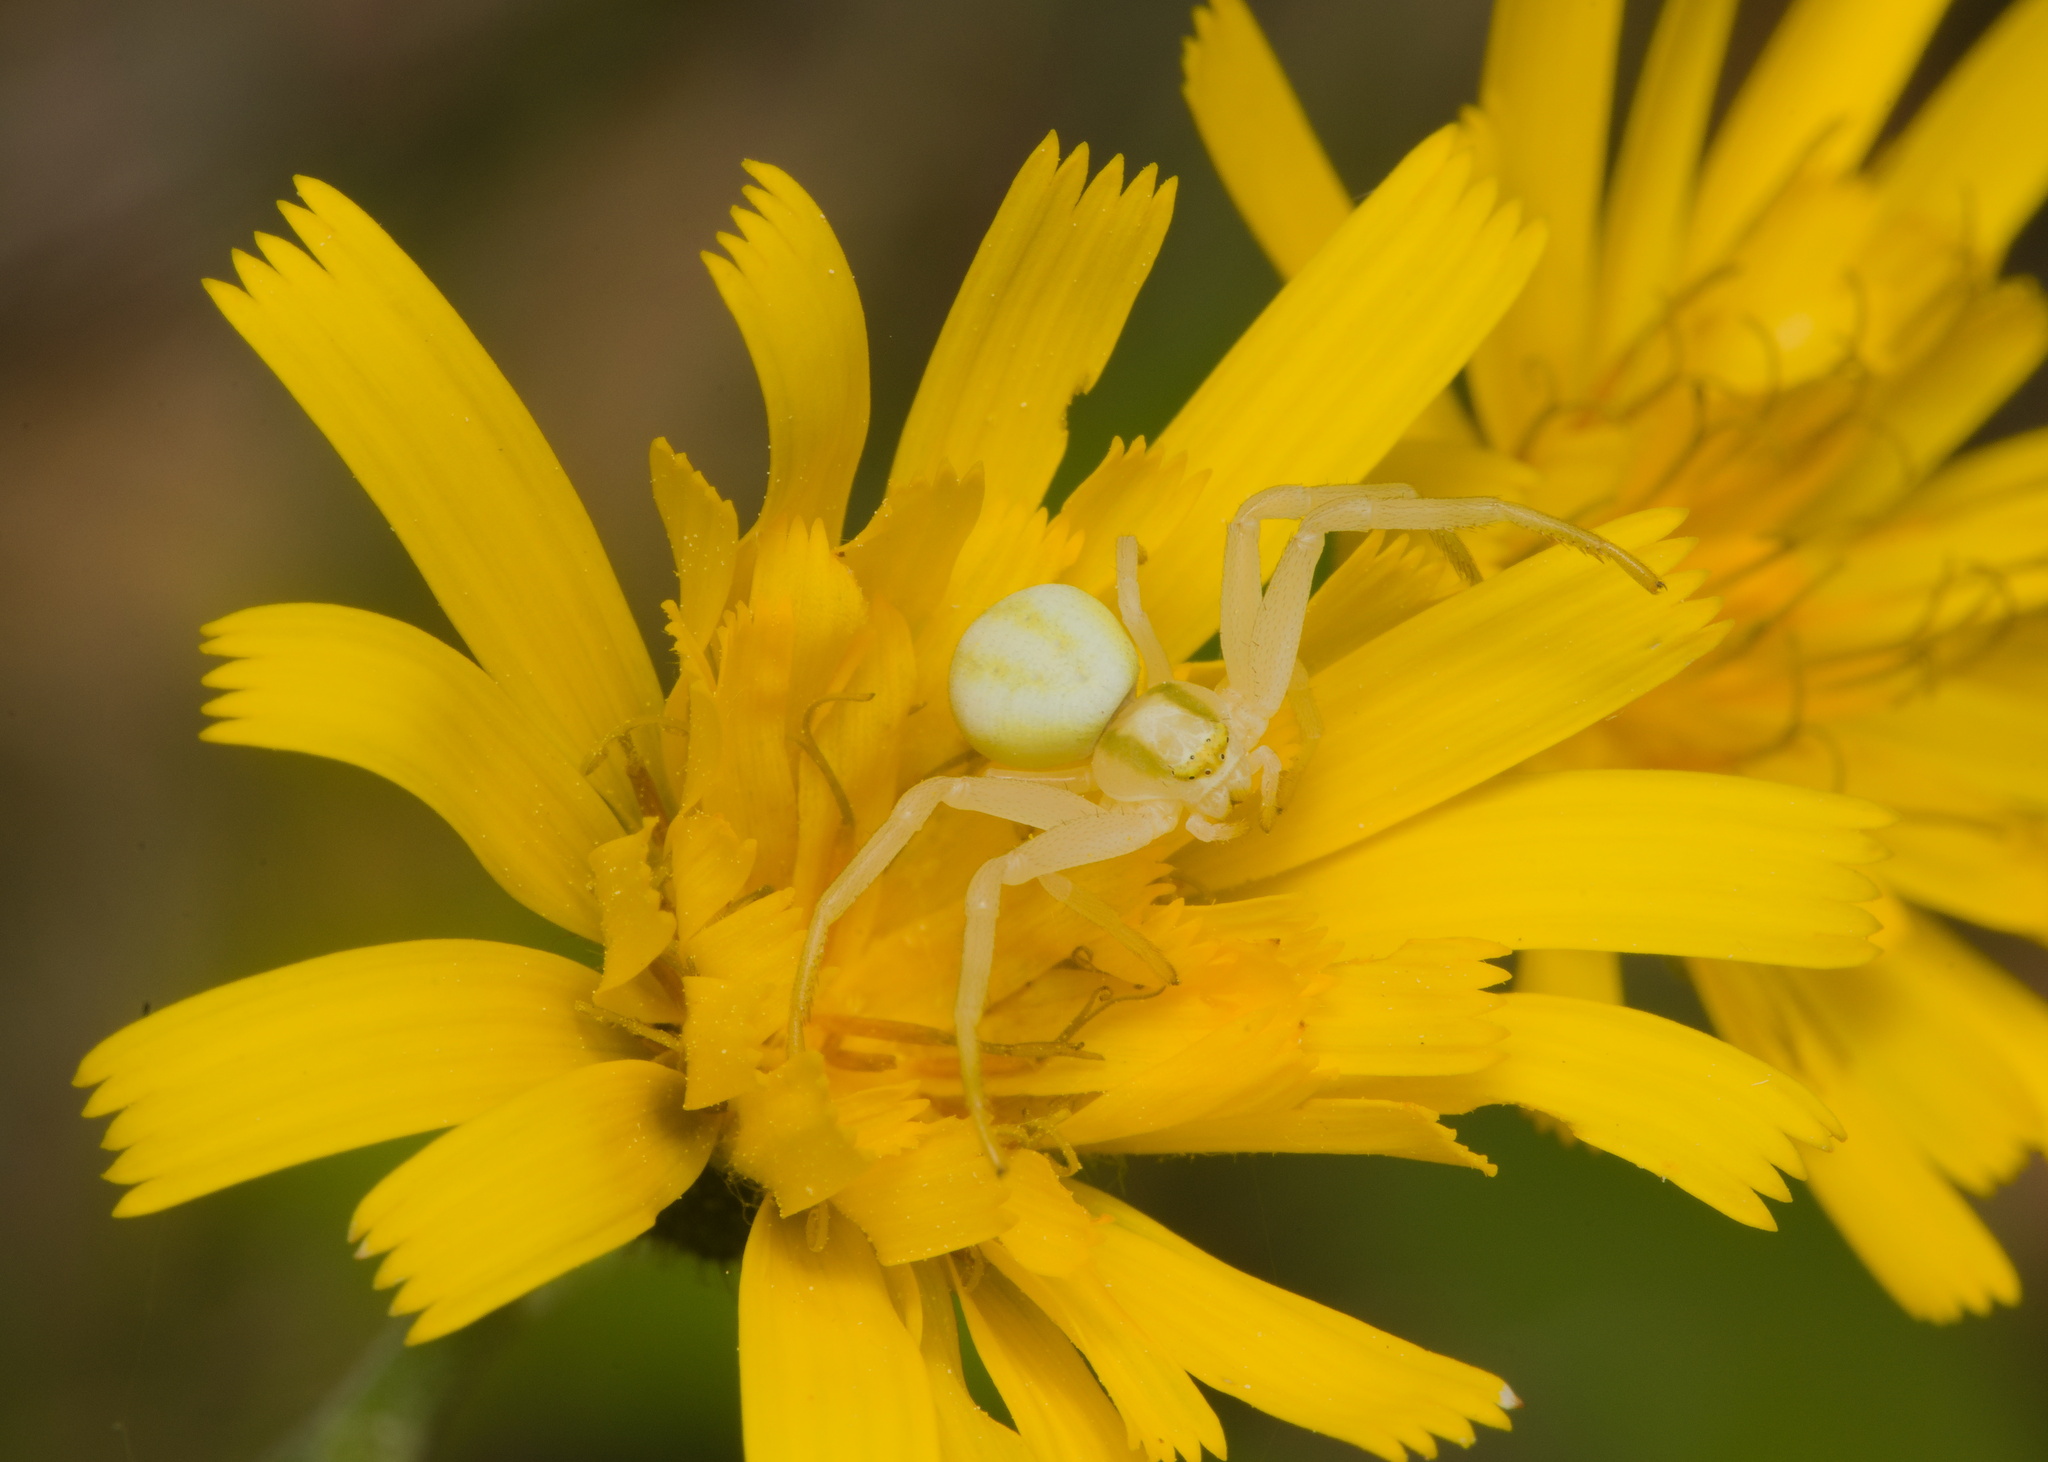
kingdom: Animalia
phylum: Arthropoda
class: Arachnida
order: Araneae
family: Thomisidae
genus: Misumena
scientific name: Misumena vatia
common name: Goldenrod crab spider
